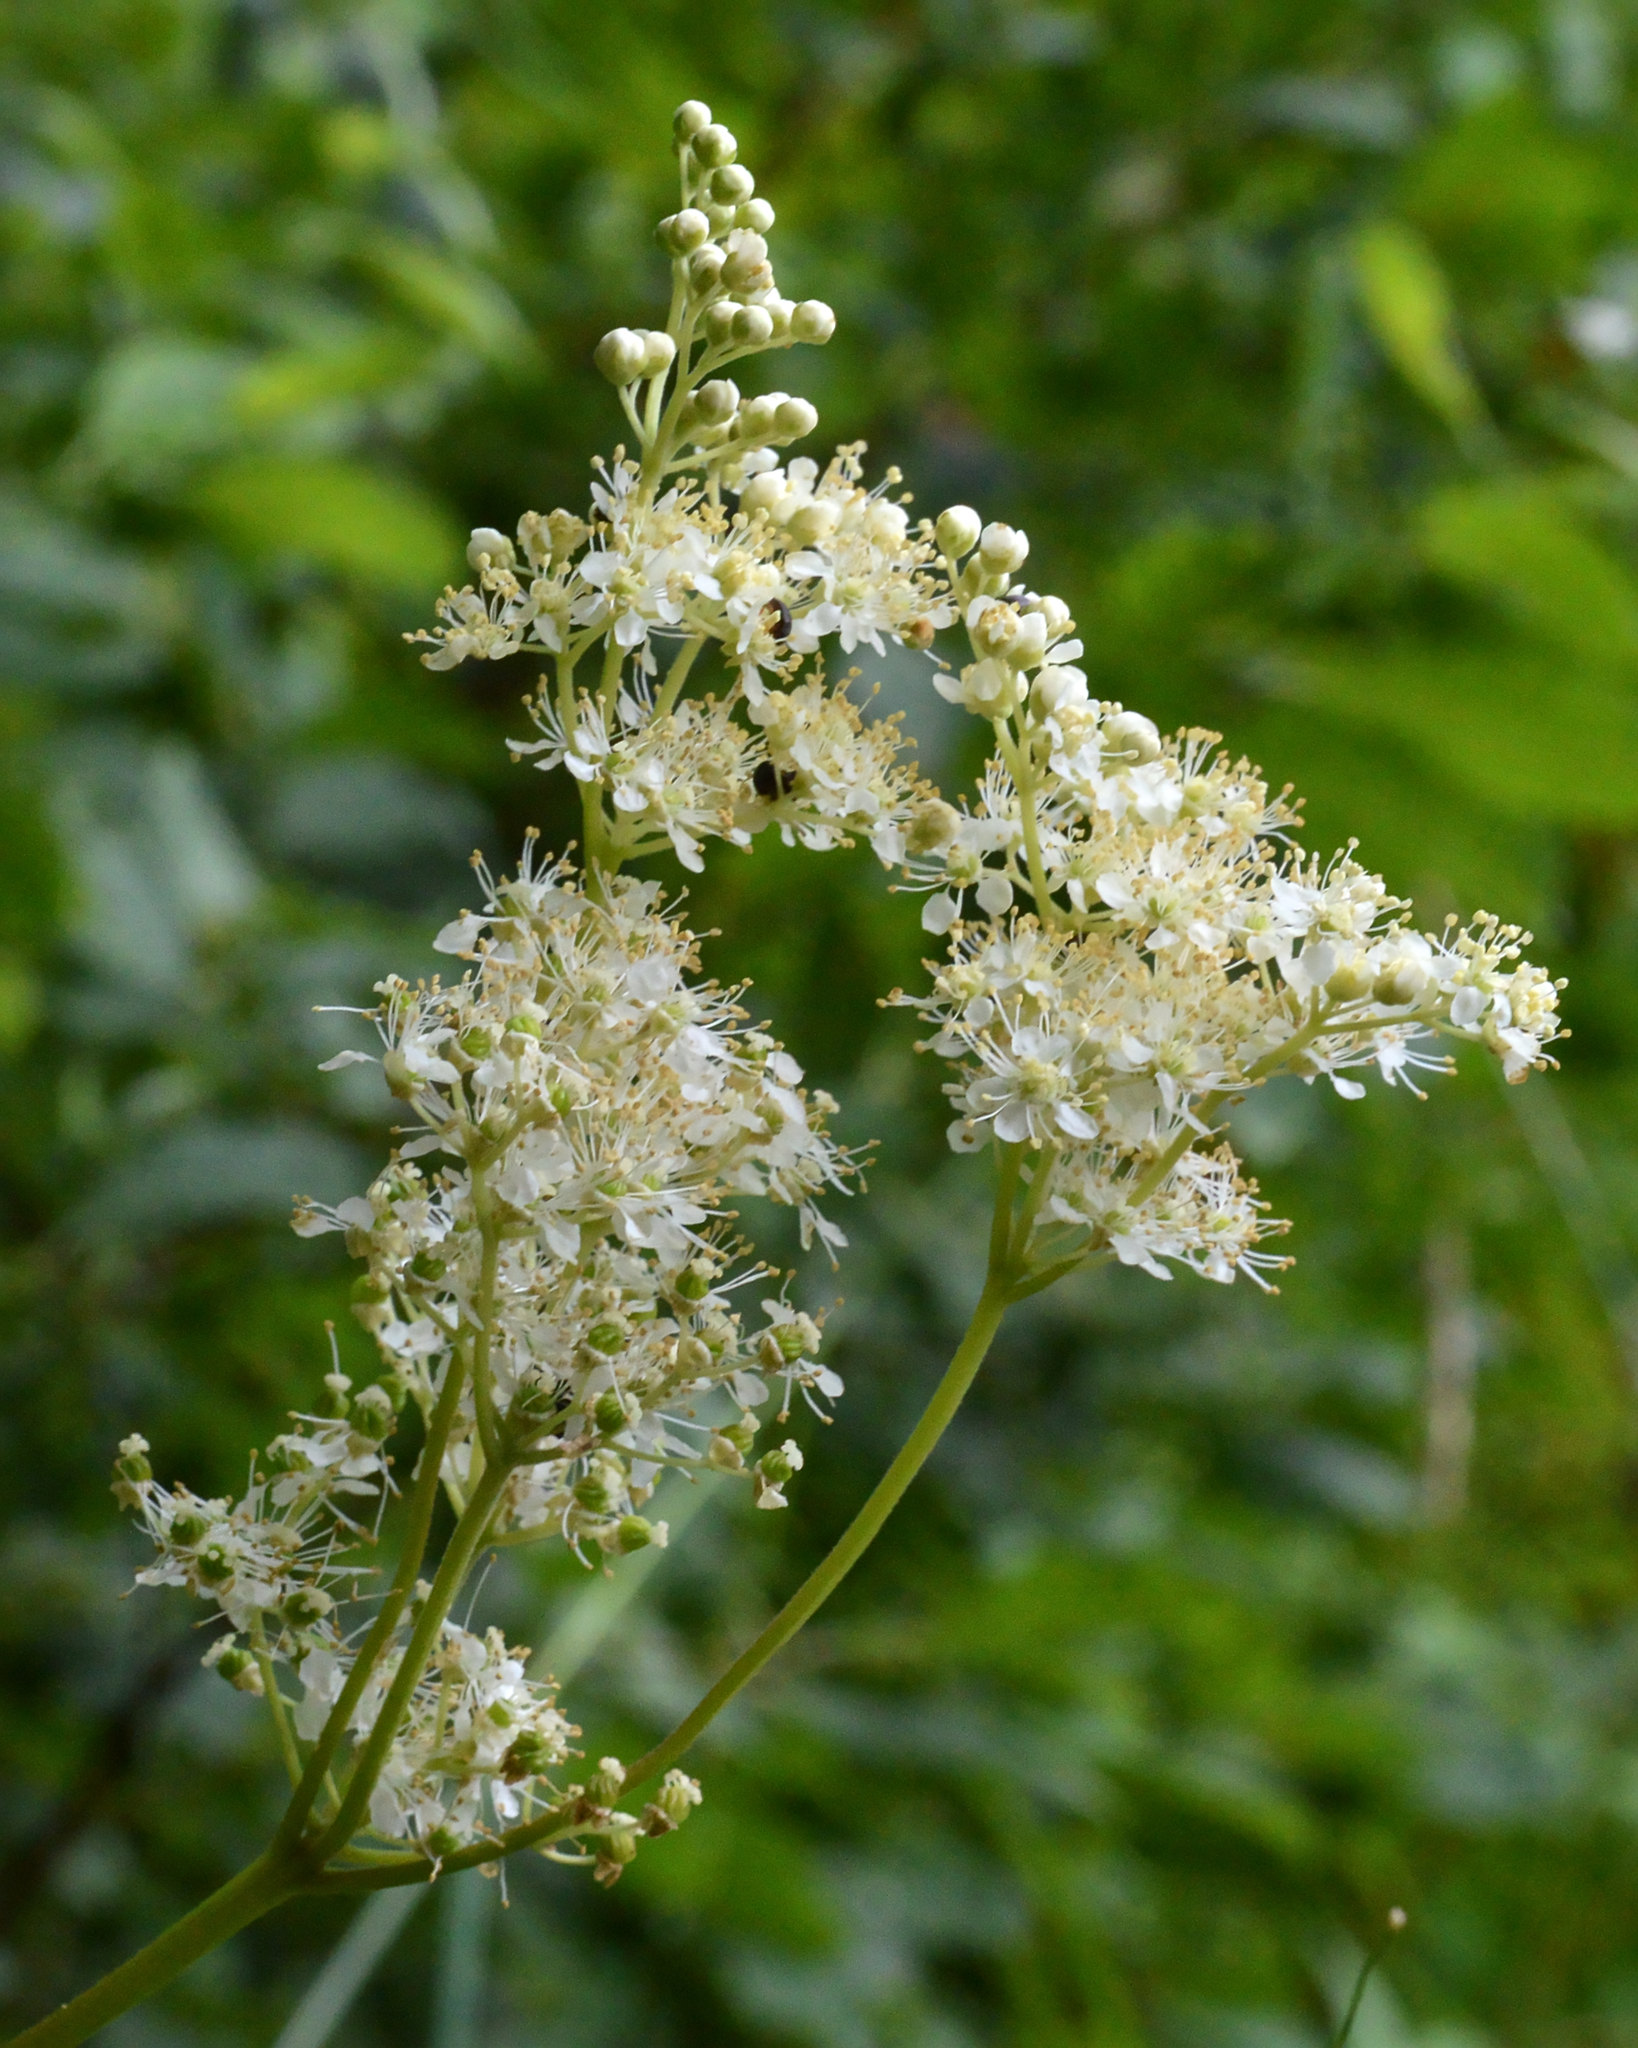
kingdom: Plantae
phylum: Tracheophyta
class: Magnoliopsida
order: Rosales
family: Rosaceae
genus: Filipendula
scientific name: Filipendula ulmaria
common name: Meadowsweet
